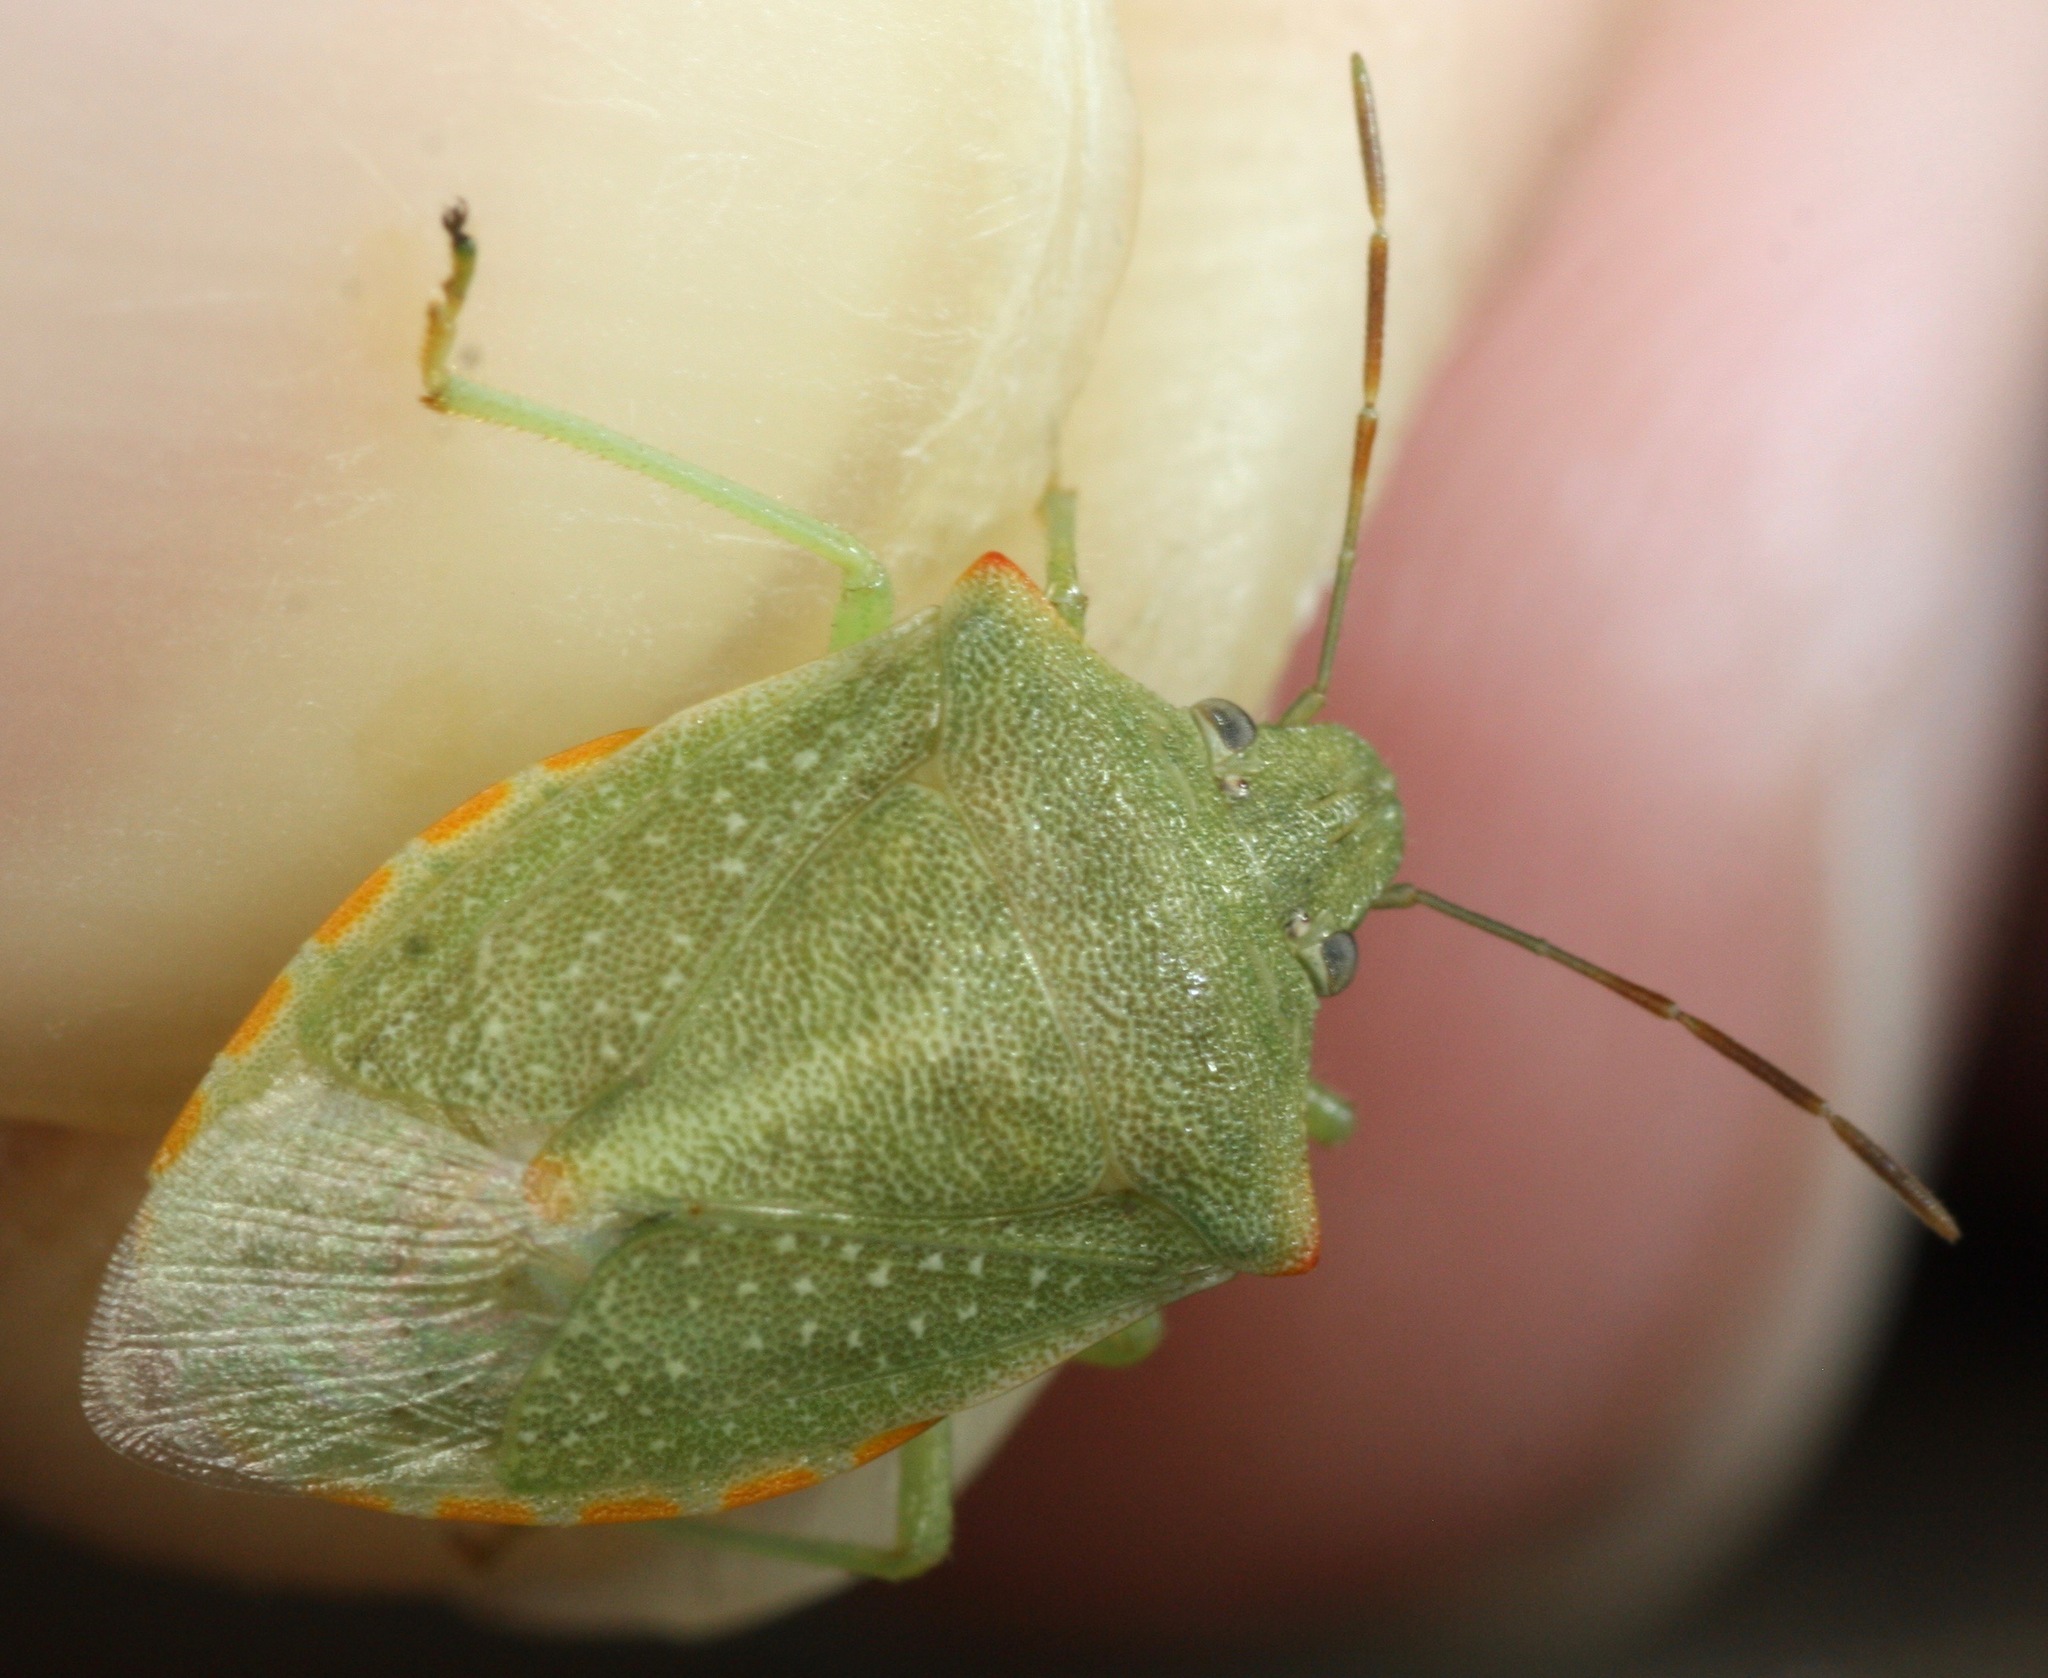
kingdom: Animalia
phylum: Arthropoda
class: Insecta
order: Hemiptera
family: Pentatomidae
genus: Thyanta
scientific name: Thyanta accerra
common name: Stink bug
